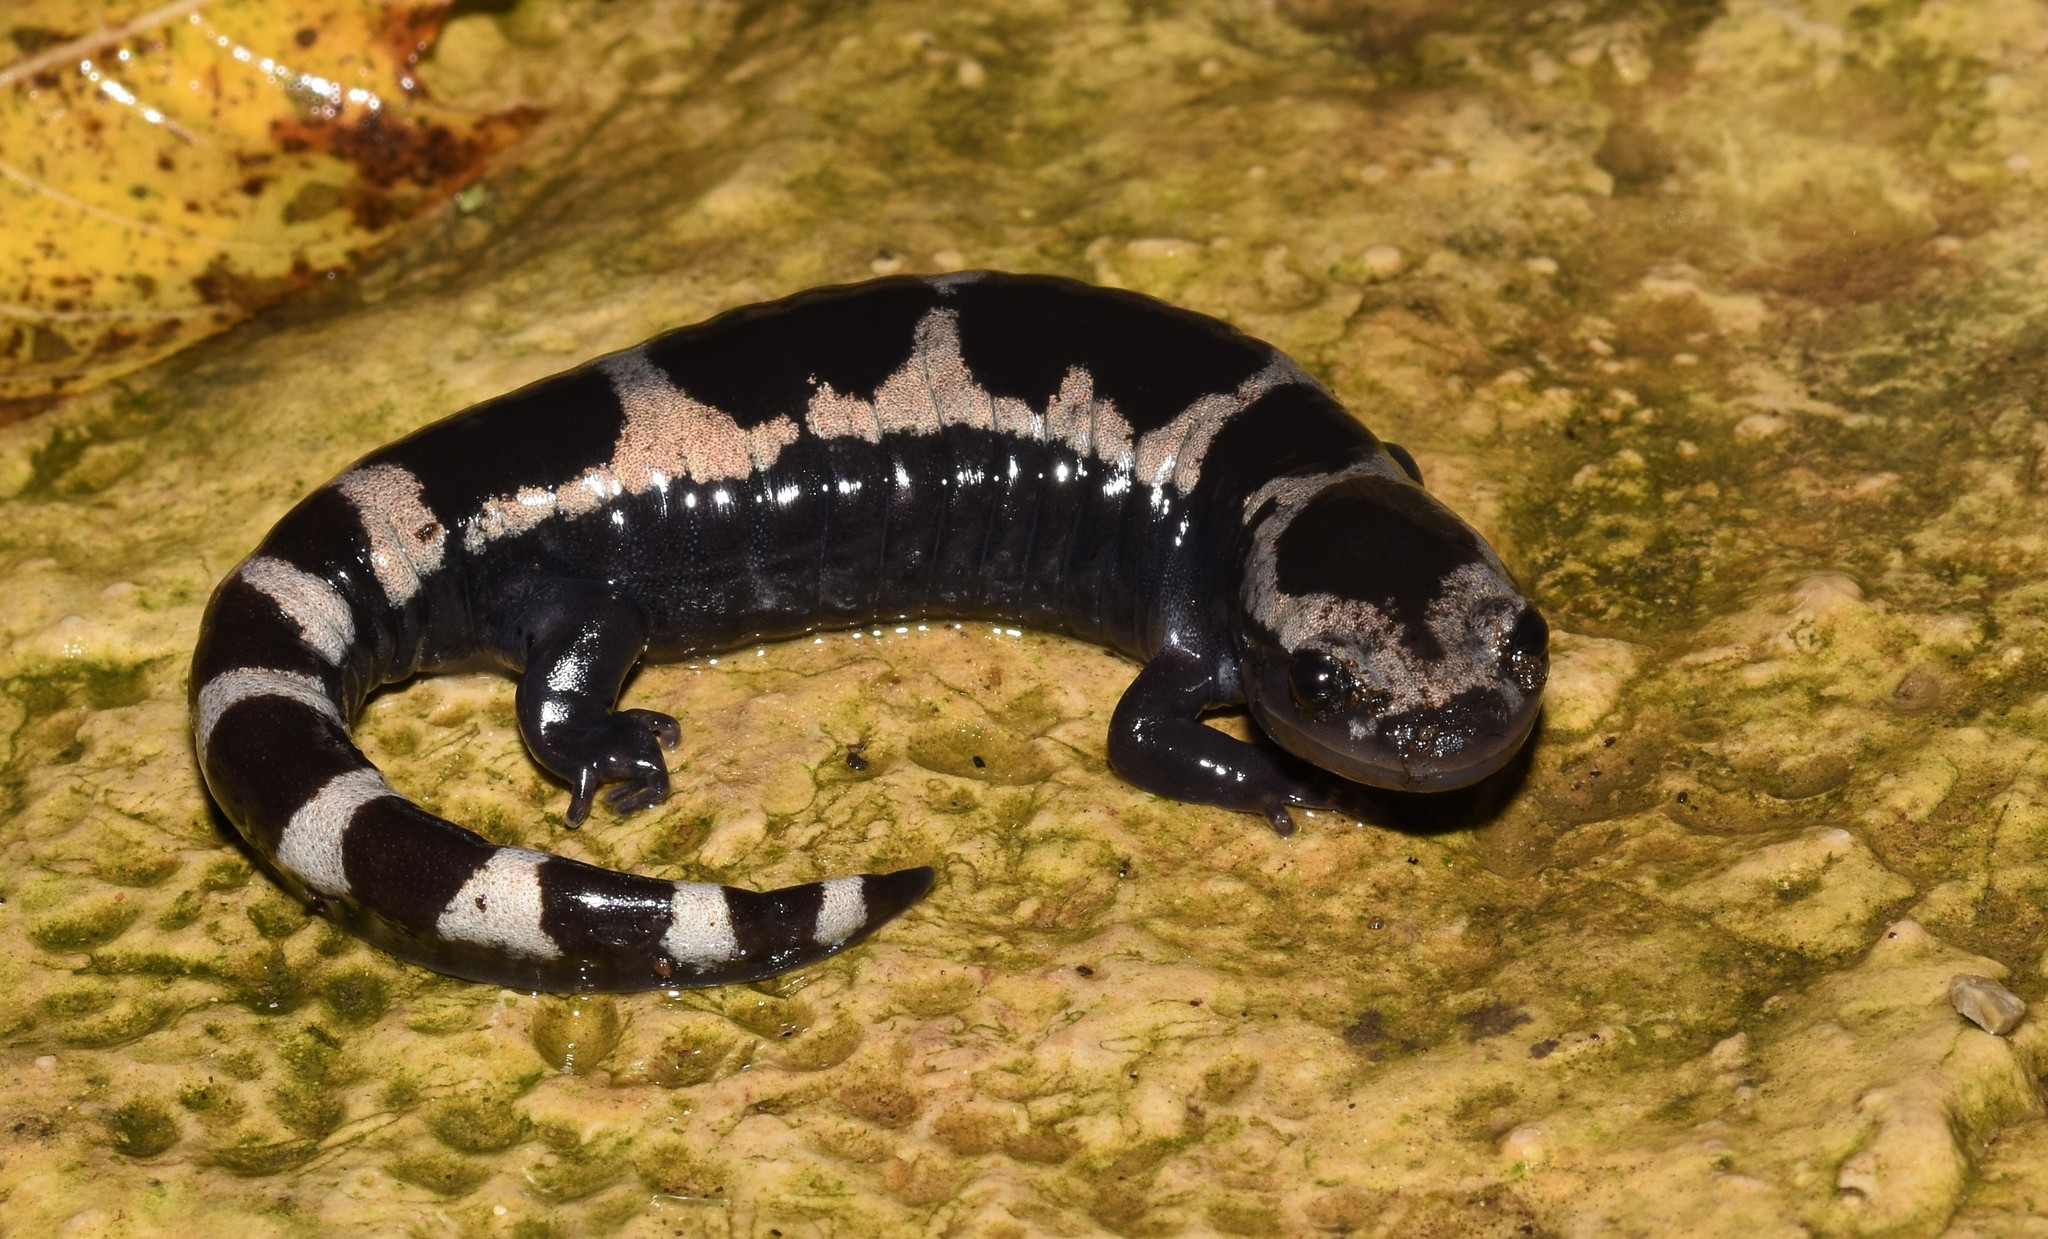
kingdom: Animalia
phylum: Chordata
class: Amphibia
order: Caudata
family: Ambystomatidae
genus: Ambystoma
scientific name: Ambystoma opacum
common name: Marbled salamander
